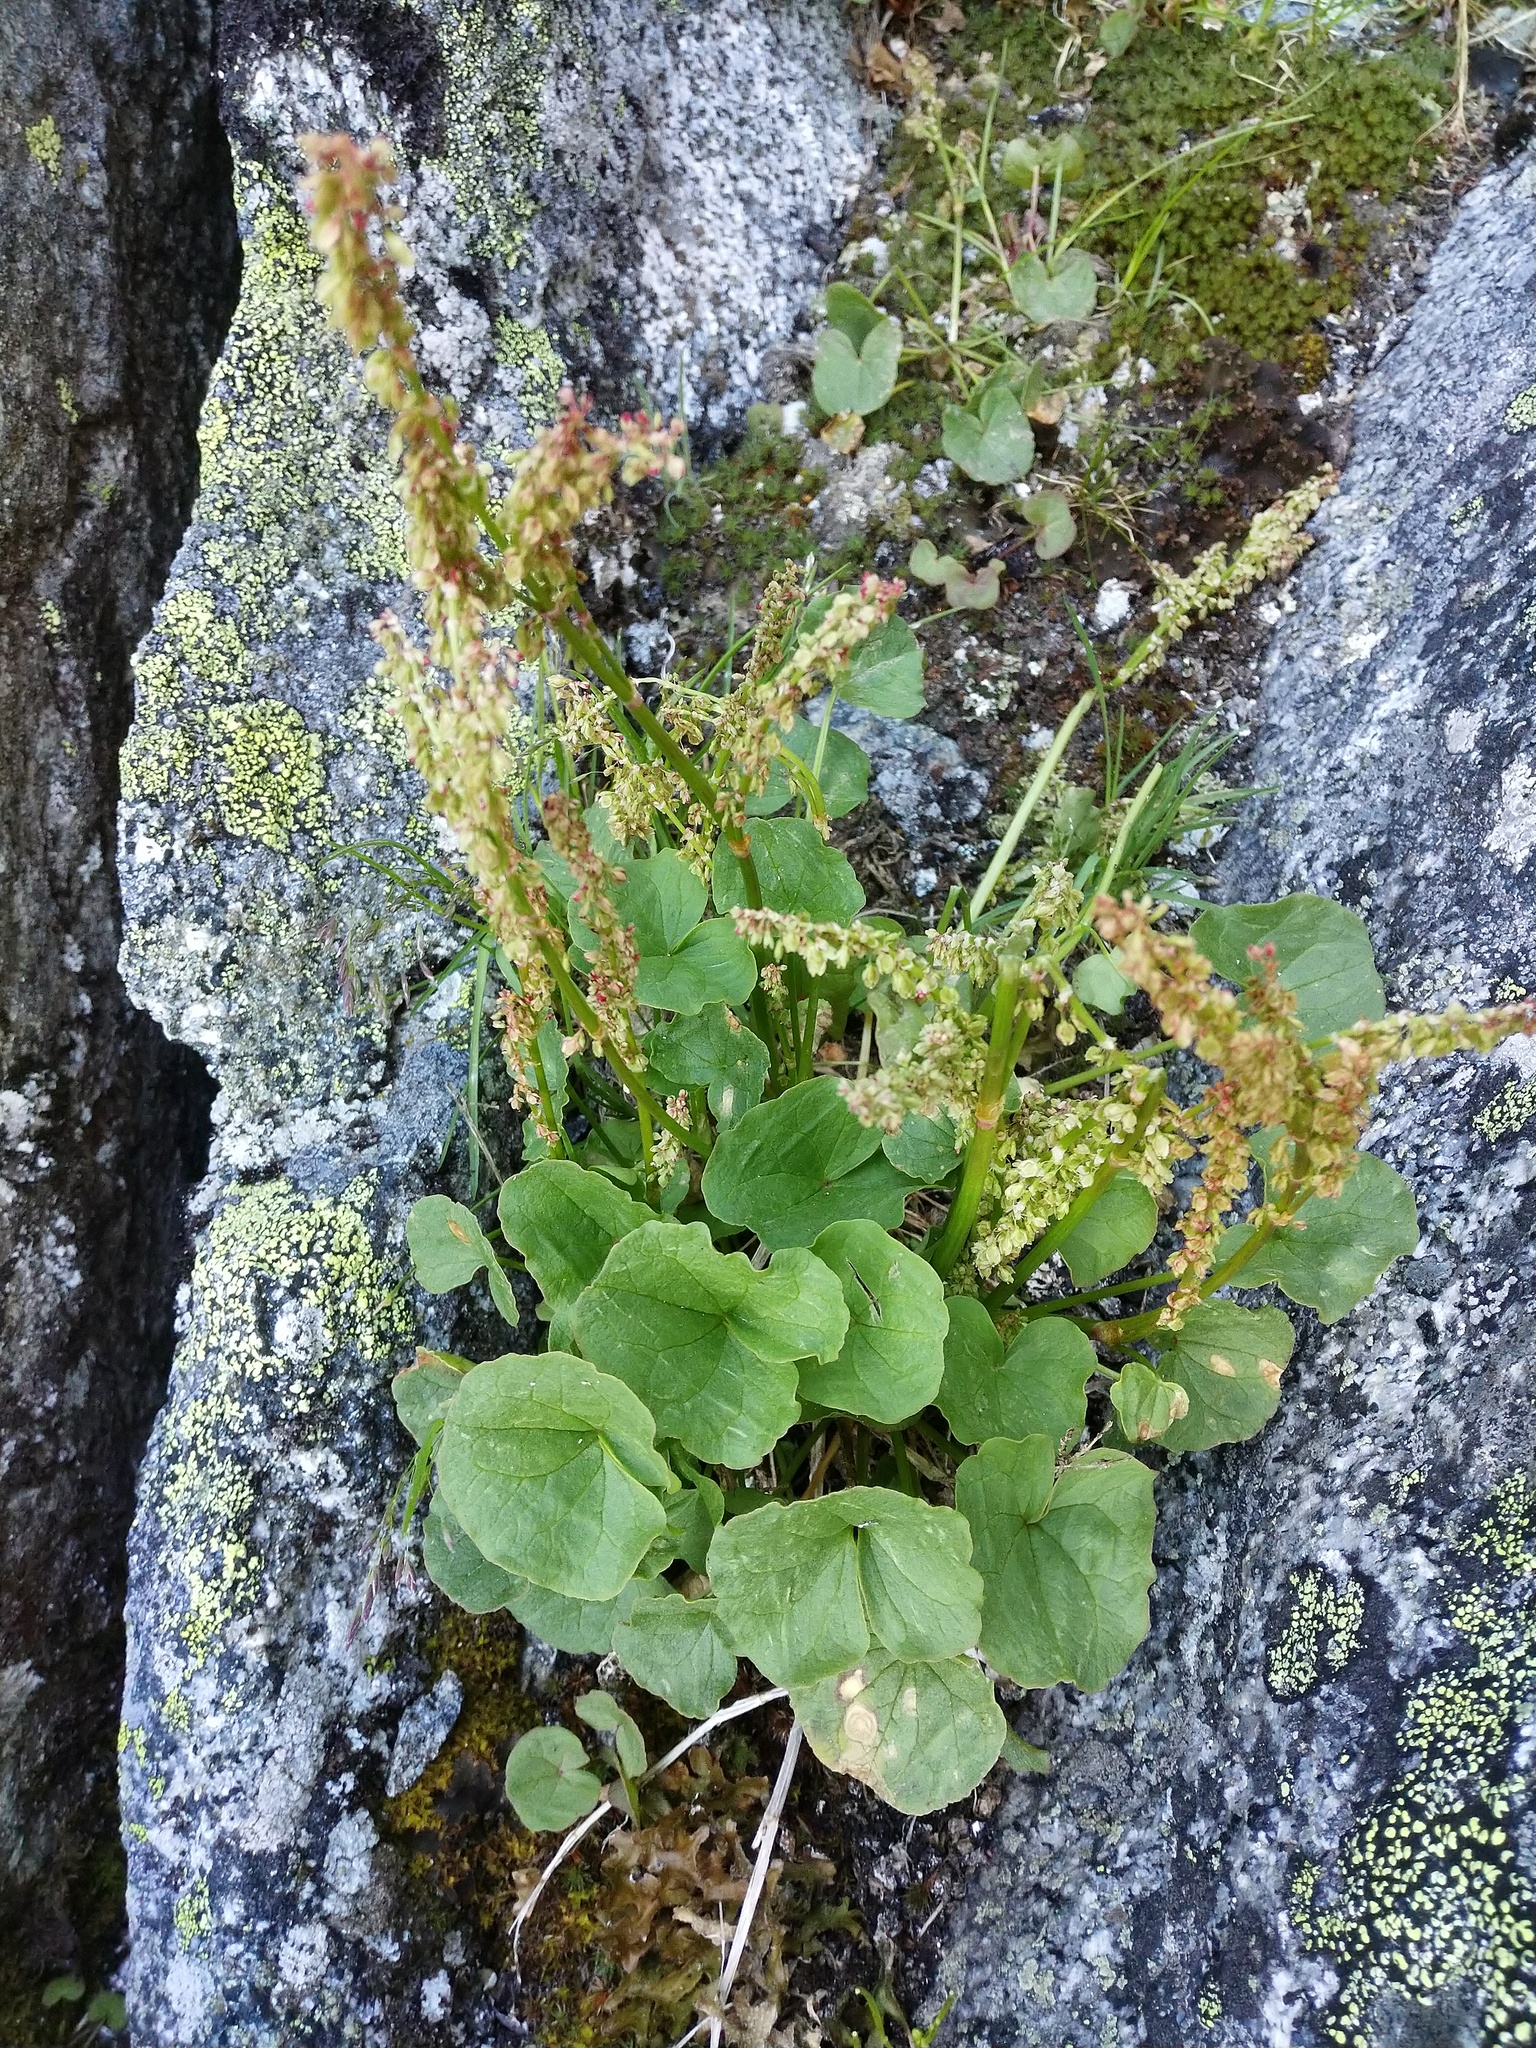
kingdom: Plantae
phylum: Tracheophyta
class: Magnoliopsida
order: Caryophyllales
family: Polygonaceae
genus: Oxyria
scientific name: Oxyria digyna
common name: Alpine mountain-sorrel
